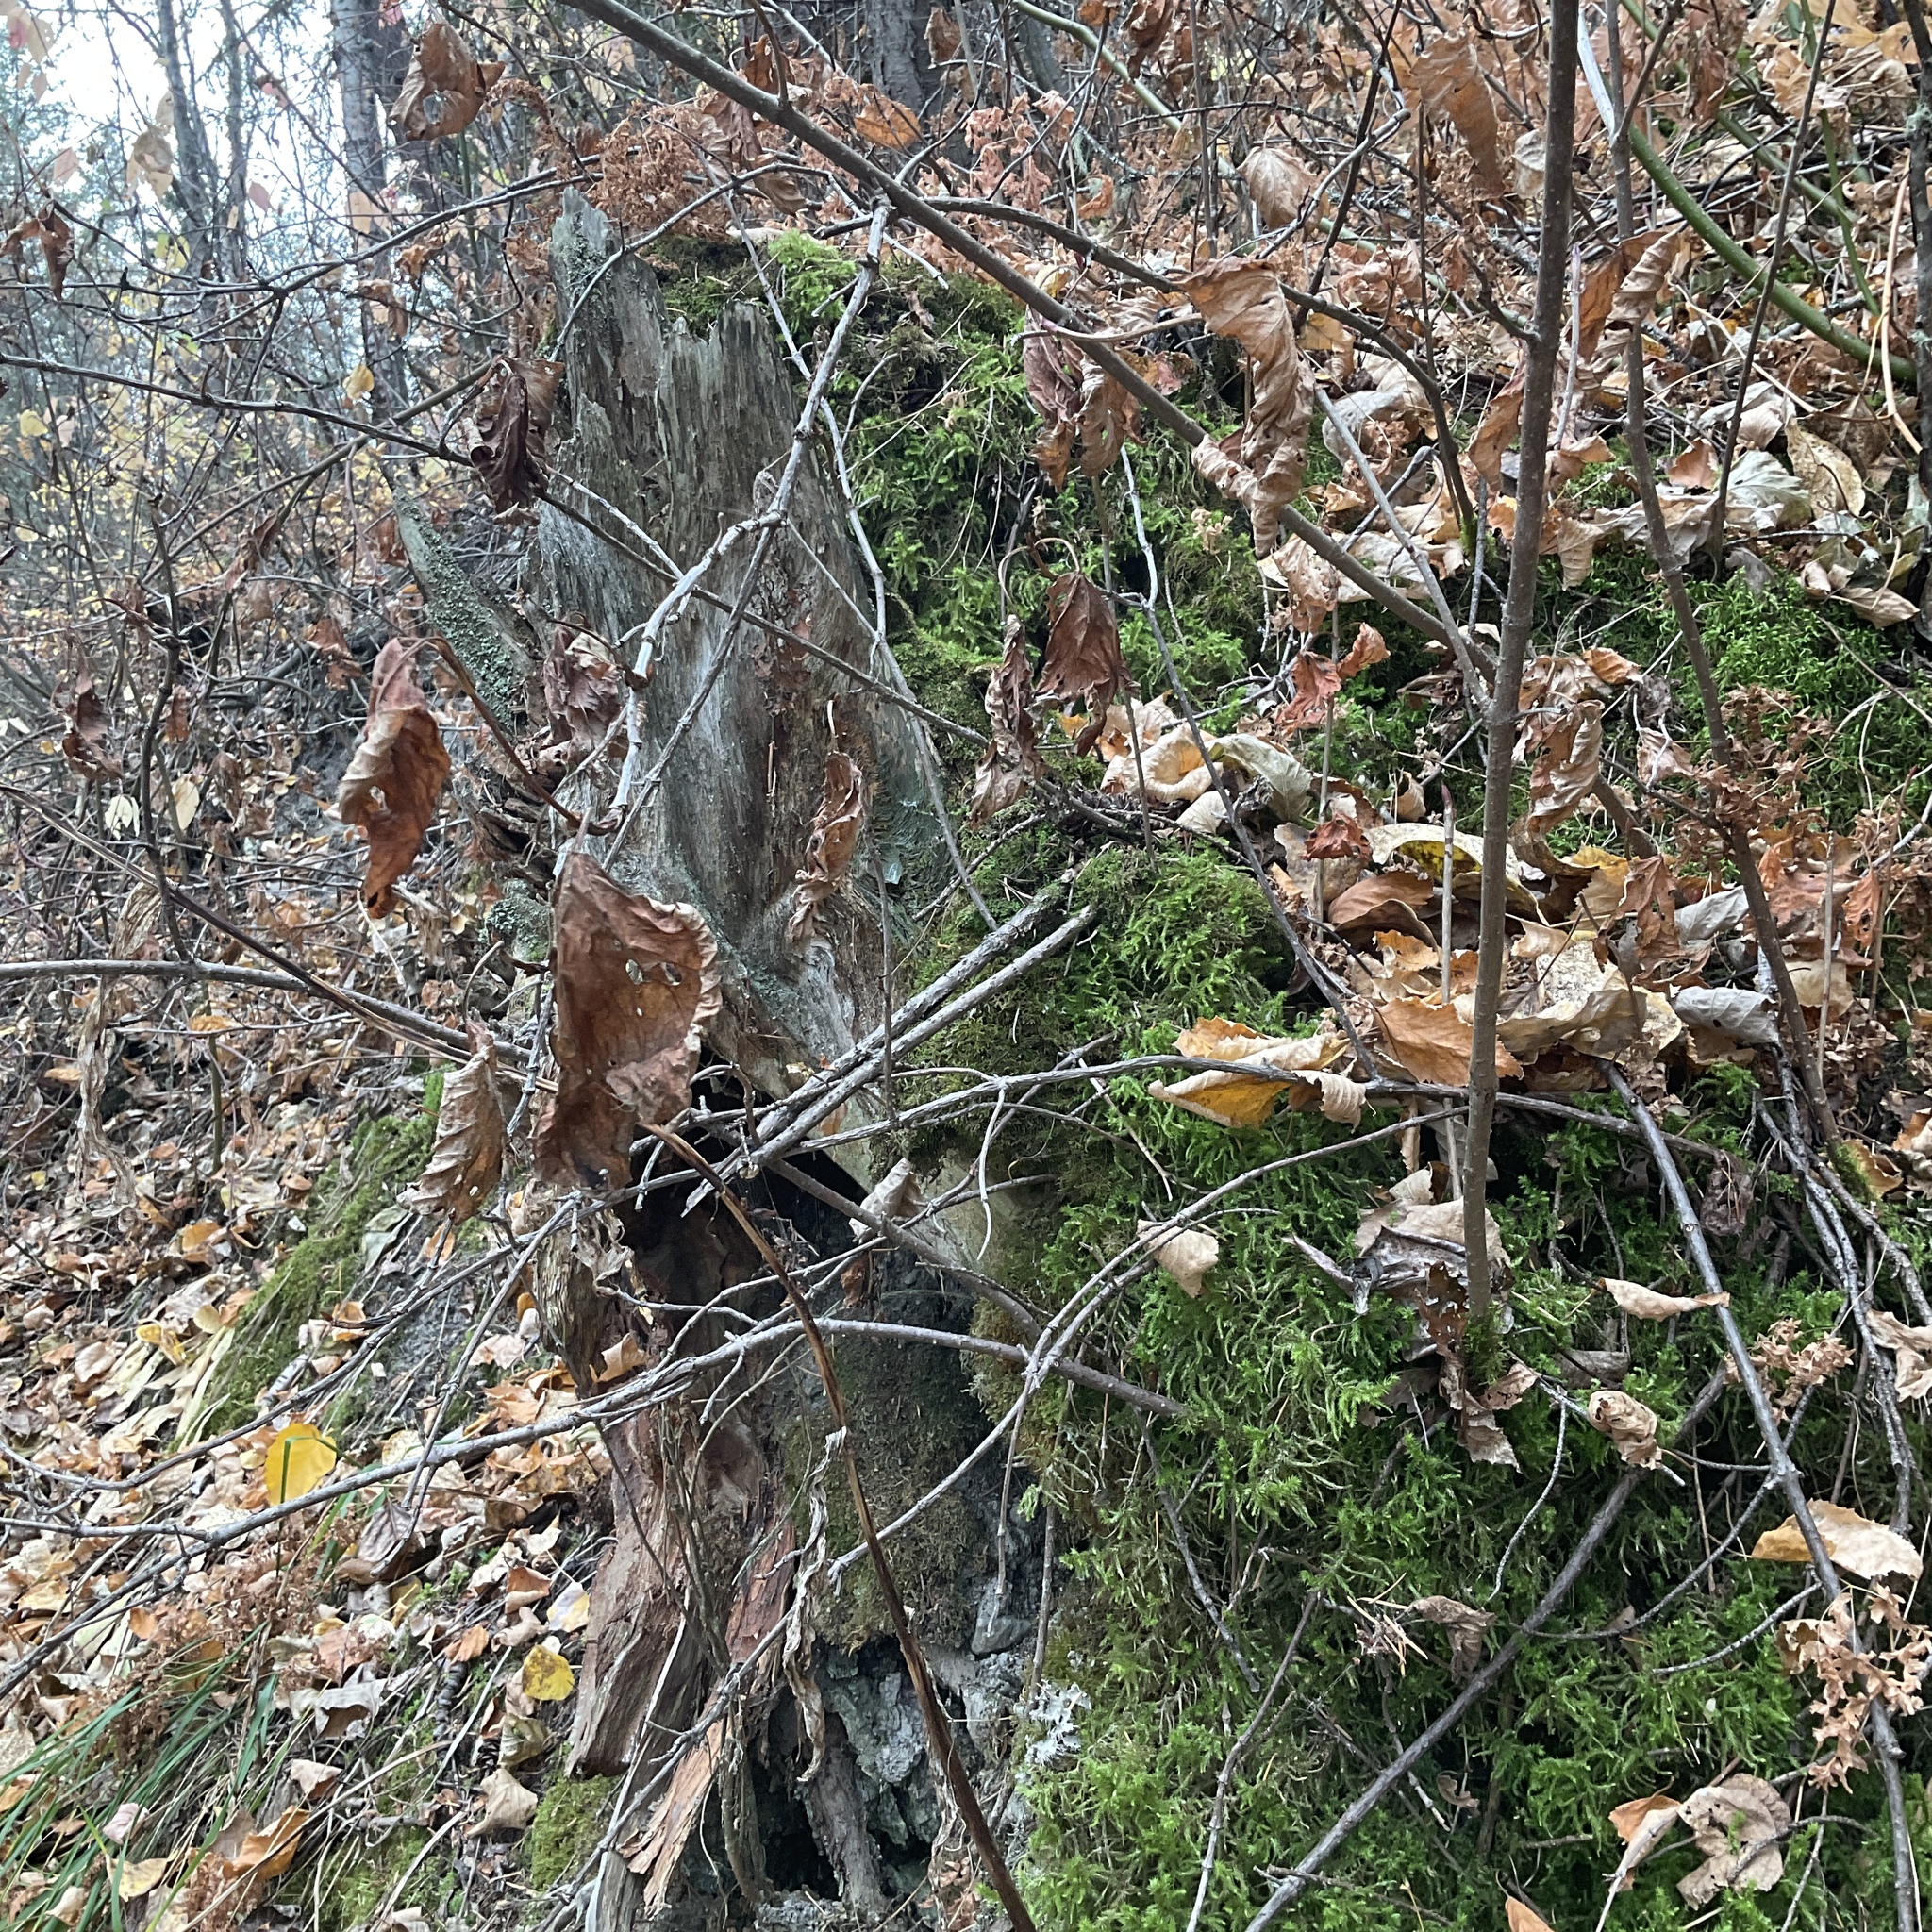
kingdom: Plantae
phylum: Bryophyta
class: Bryopsida
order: Hypnales
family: Hylocomiaceae
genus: Hylocomiadelphus
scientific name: Hylocomiadelphus triquetrus
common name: Rough goose neck moss
